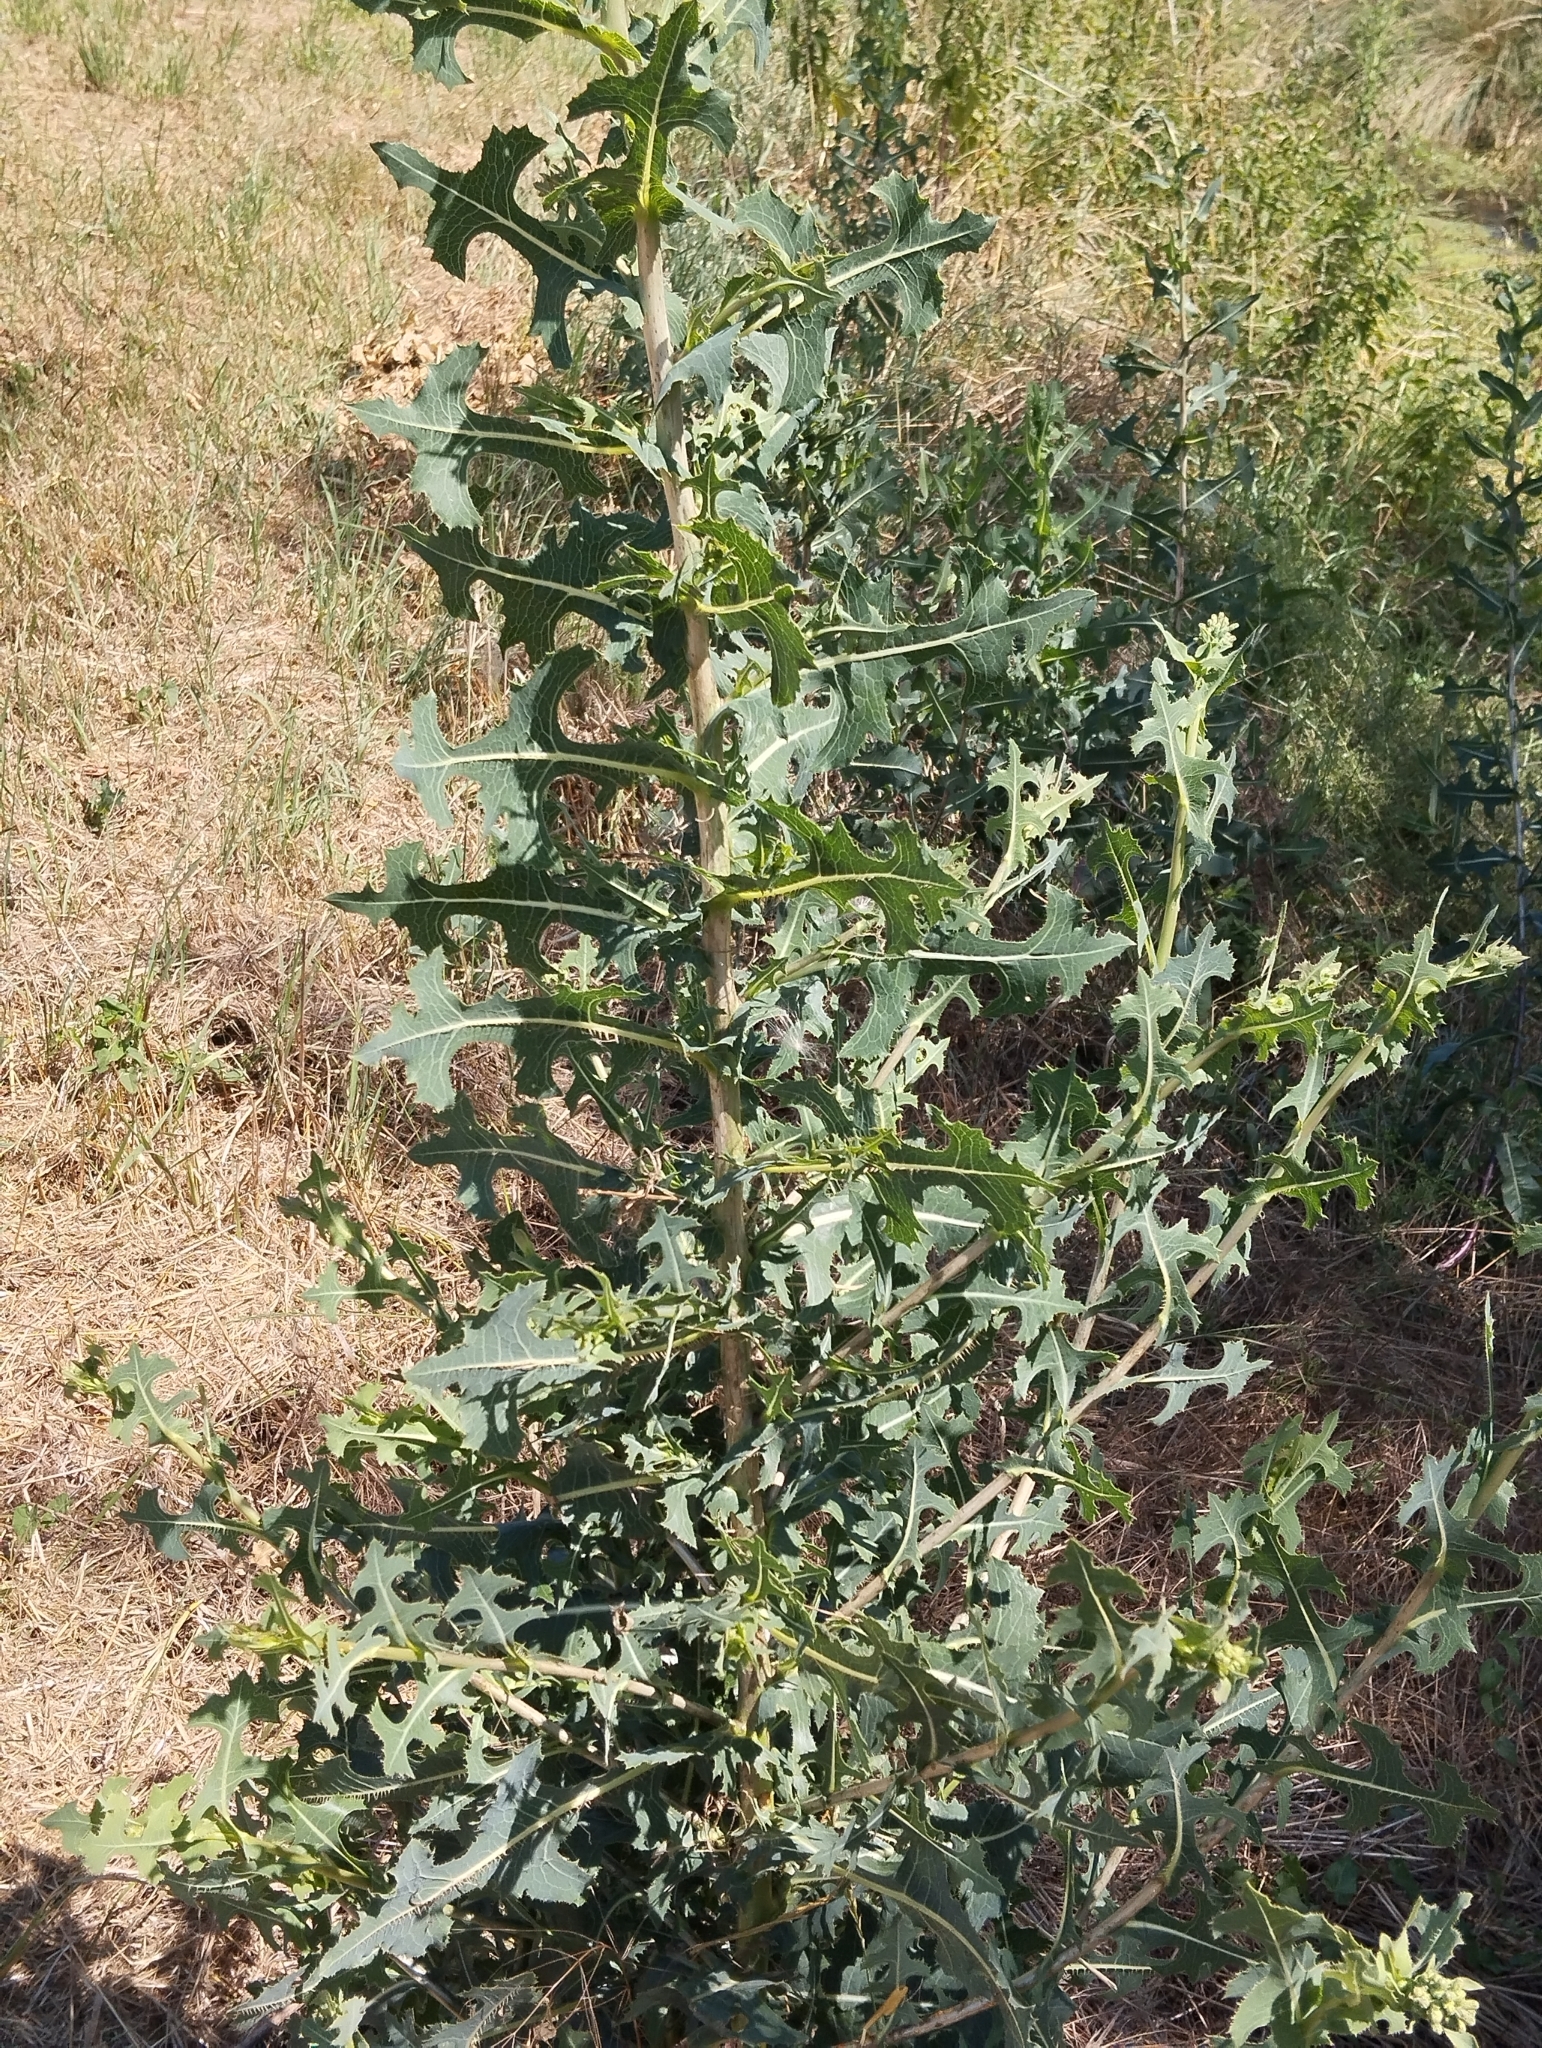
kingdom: Plantae
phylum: Tracheophyta
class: Magnoliopsida
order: Asterales
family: Asteraceae
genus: Lactuca
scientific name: Lactuca serriola
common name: Prickly lettuce
